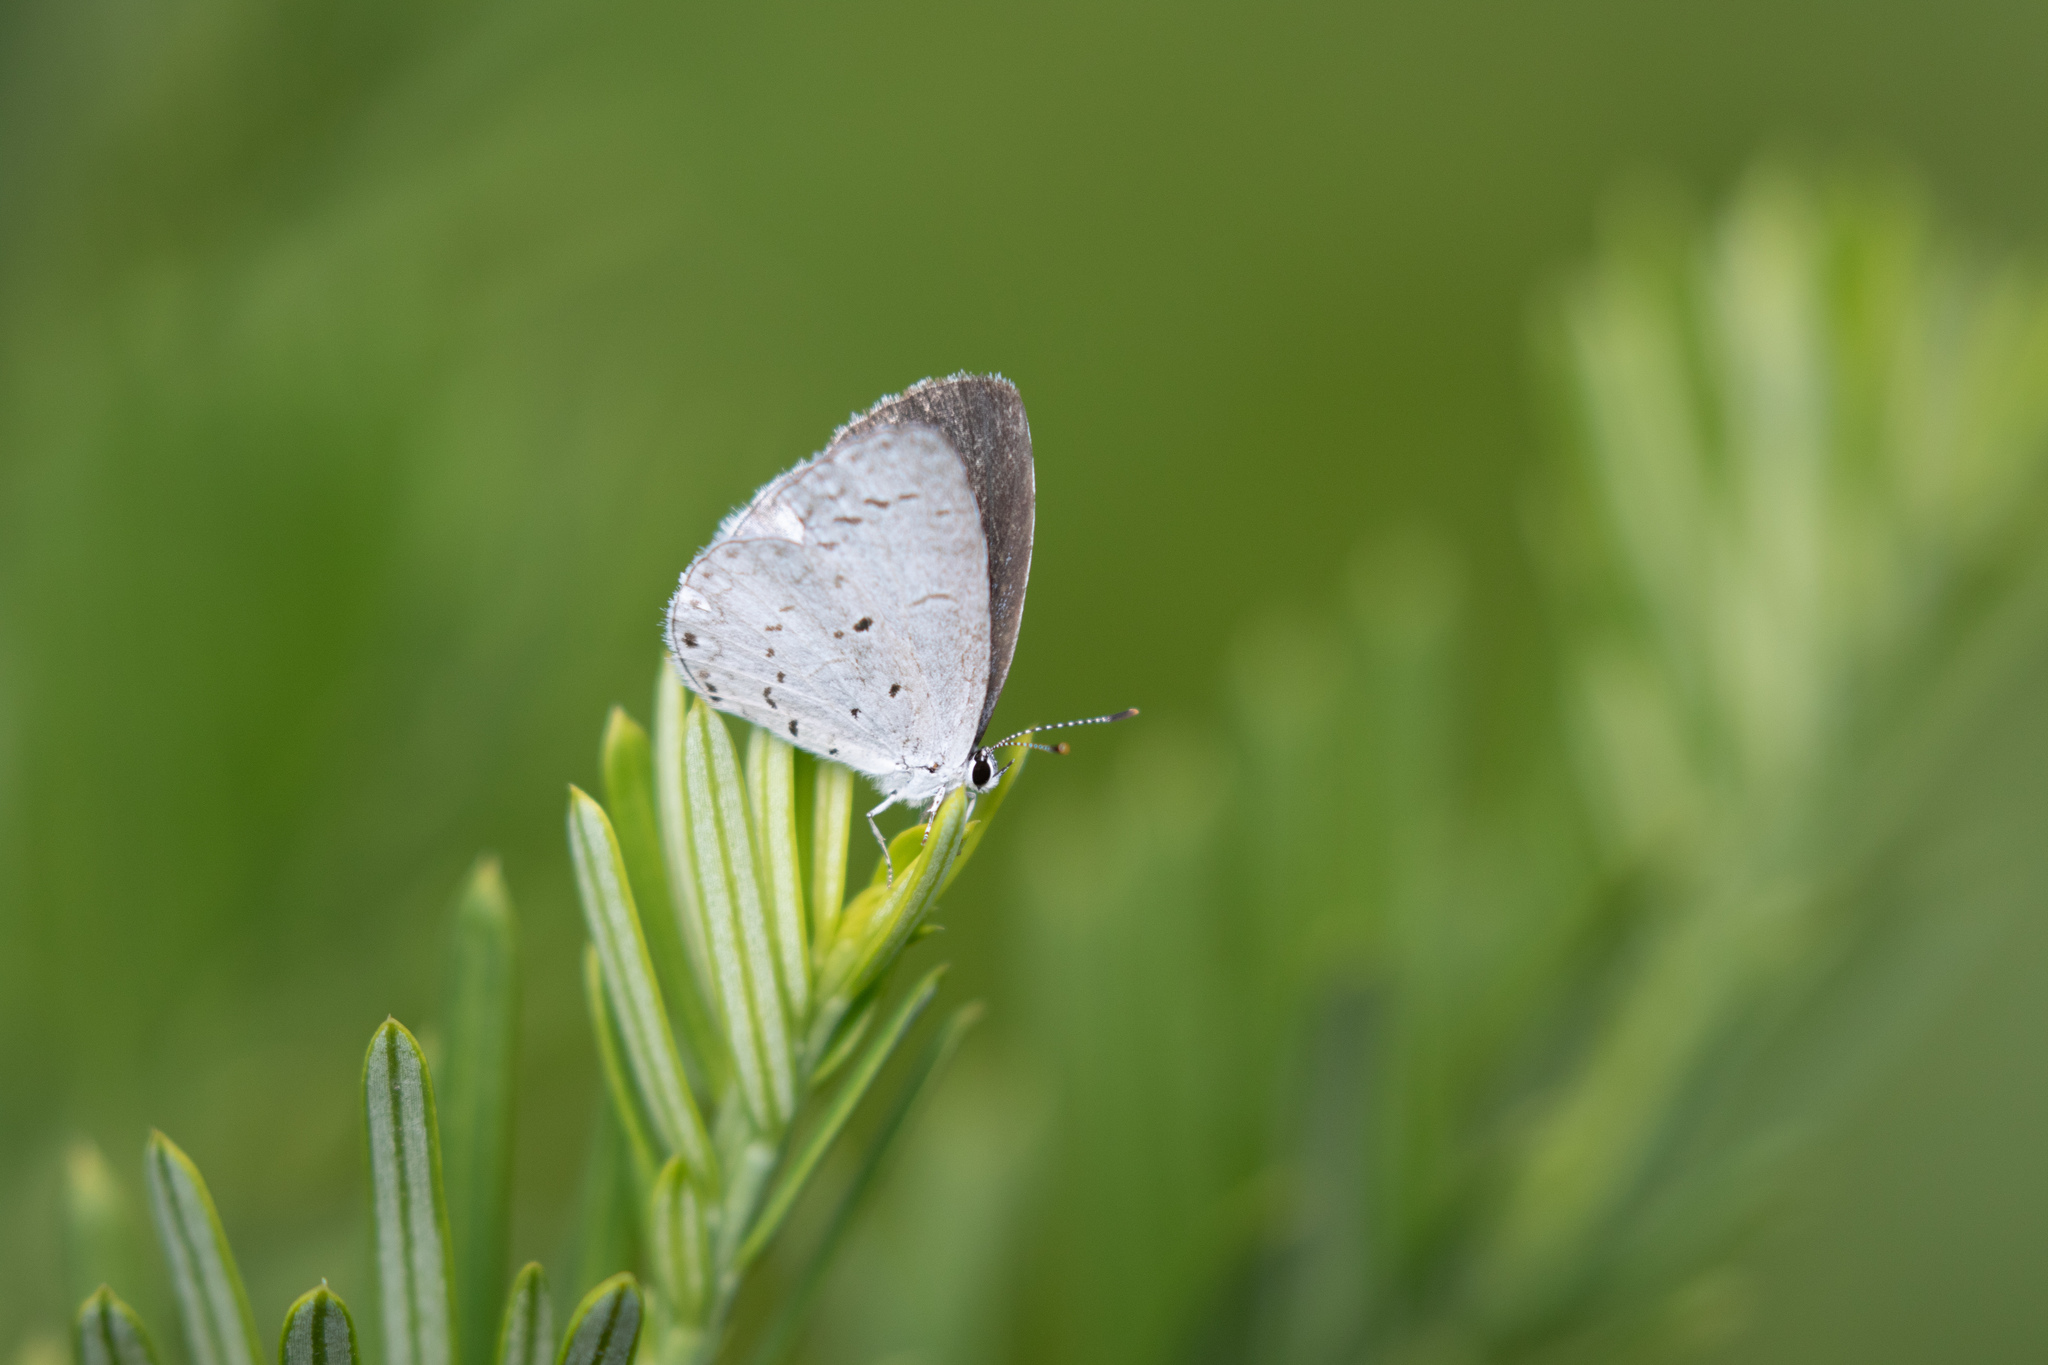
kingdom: Animalia
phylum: Arthropoda
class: Insecta
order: Lepidoptera
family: Lycaenidae
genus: Cyaniris
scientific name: Cyaniris neglecta
